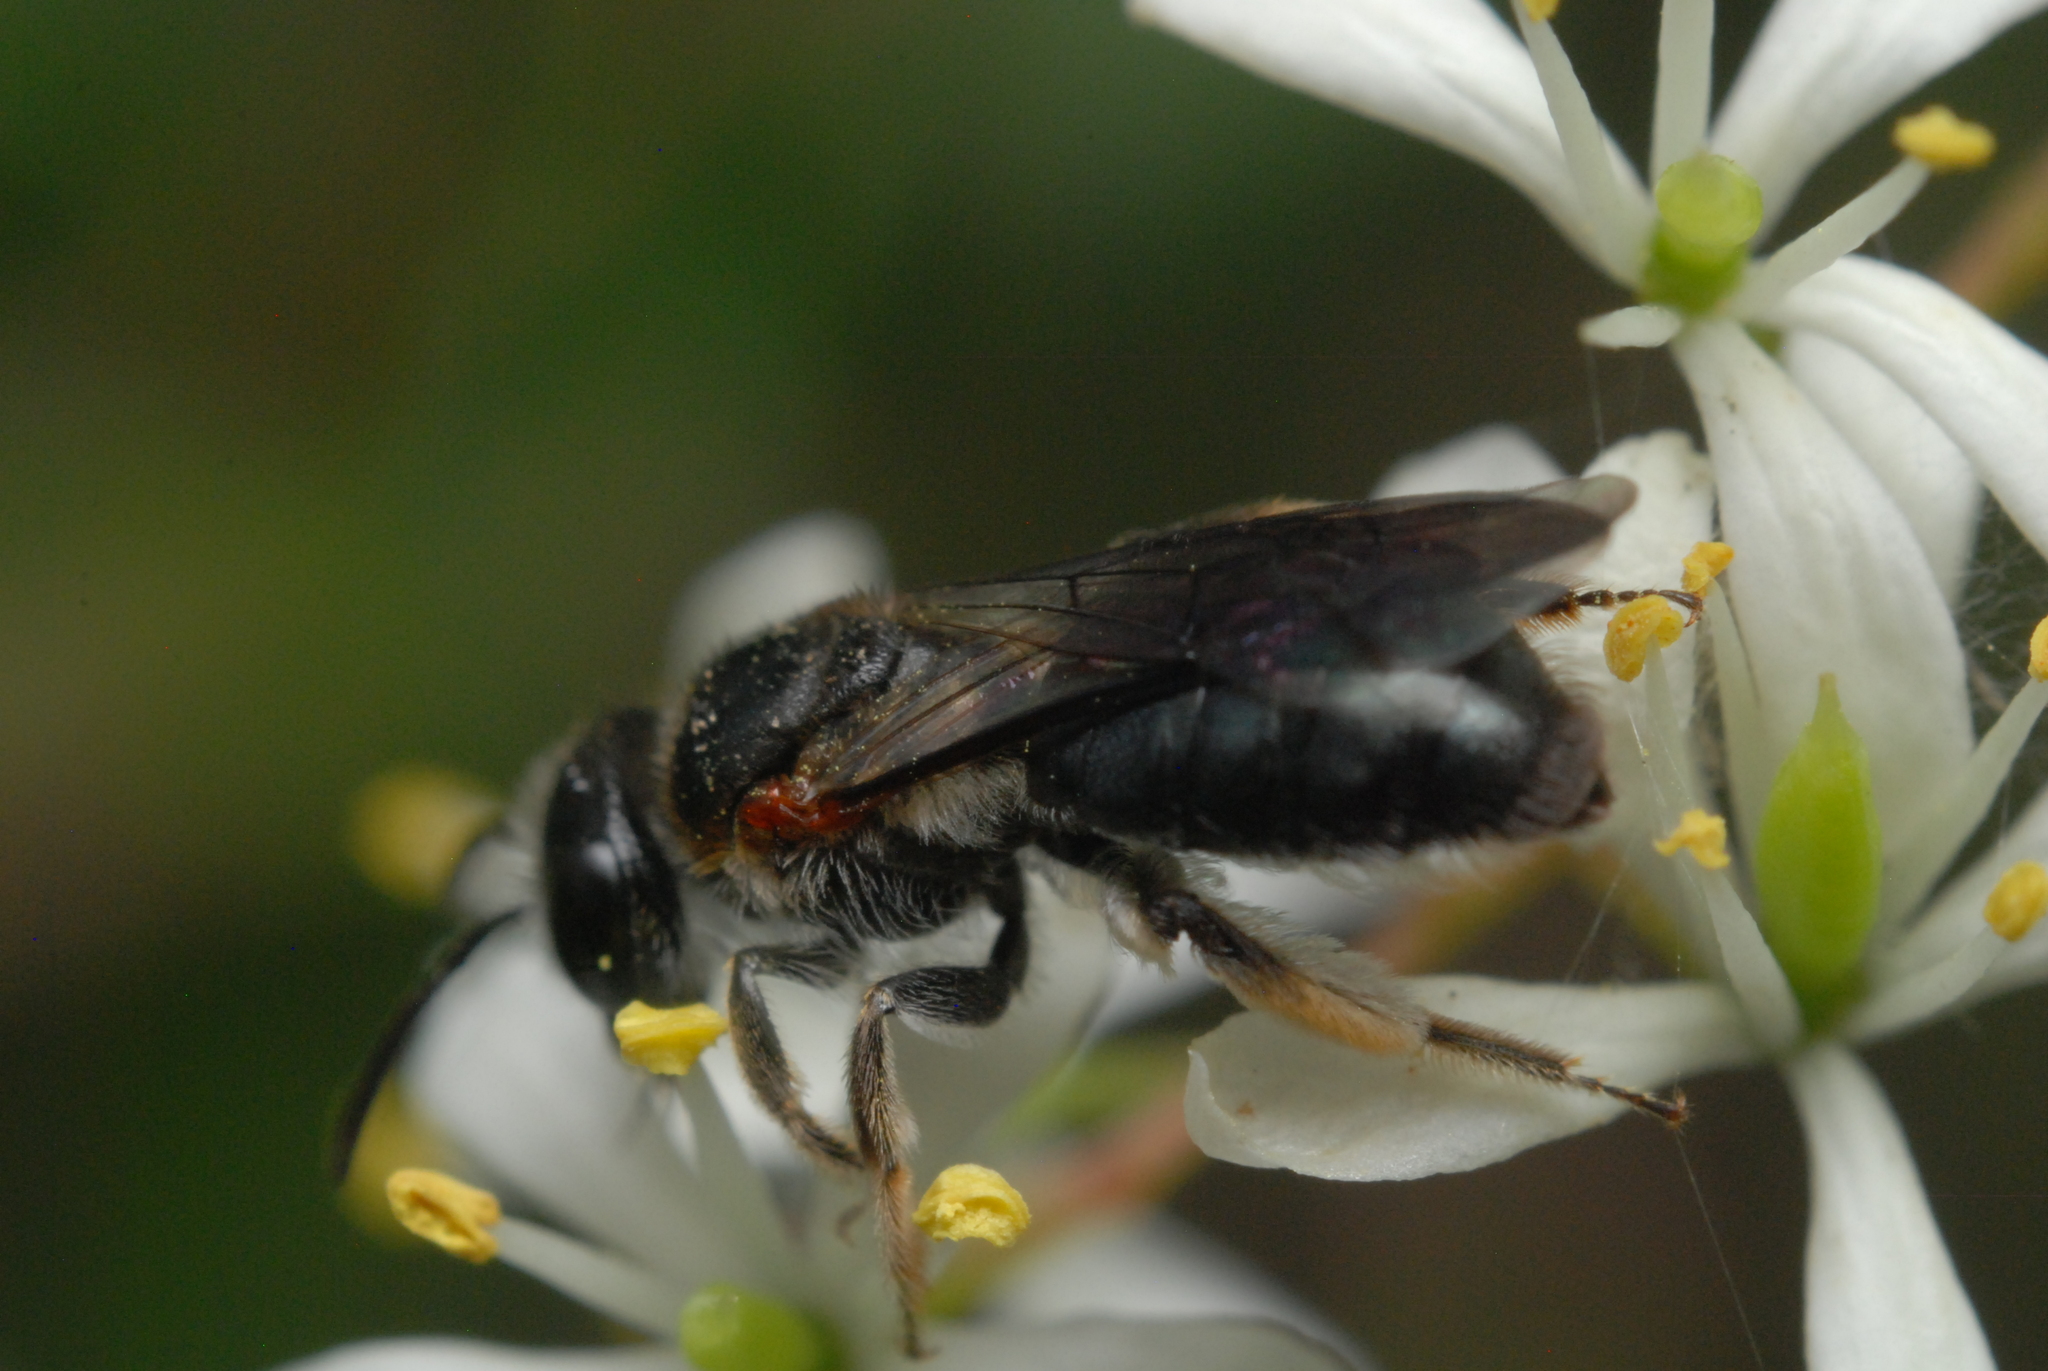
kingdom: Animalia
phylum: Arthropoda
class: Insecta
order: Hymenoptera
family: Colletidae
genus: Leioproctus
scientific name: Leioproctus launcestonensis
